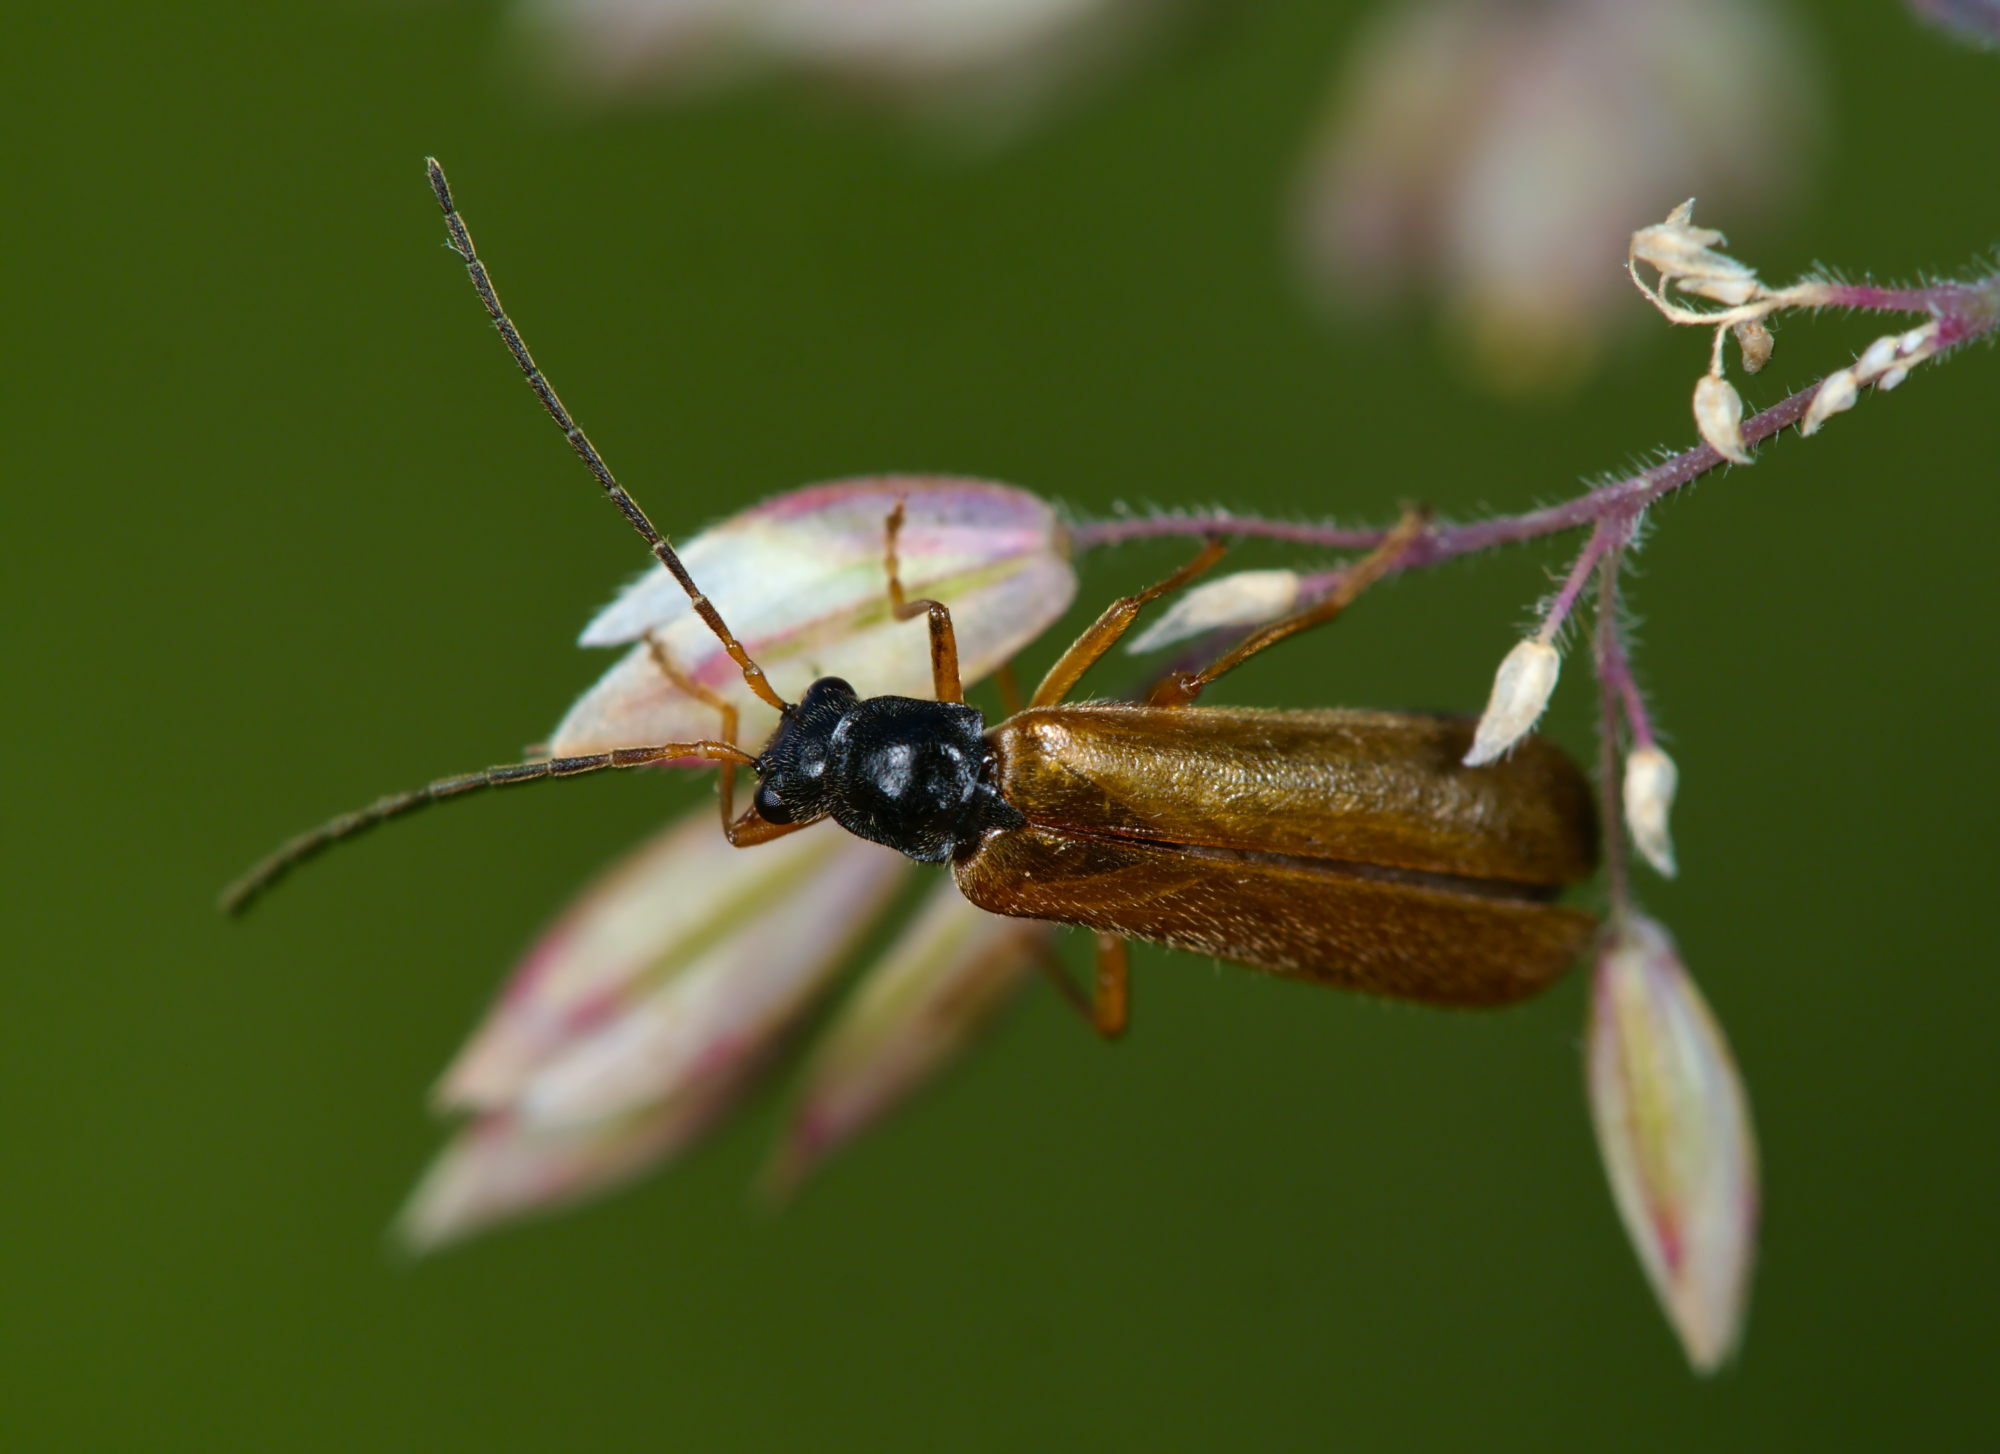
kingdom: Animalia
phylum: Arthropoda
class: Insecta
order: Coleoptera
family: Cantharidae
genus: Rhagonycha
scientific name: Rhagonycha lignosa
